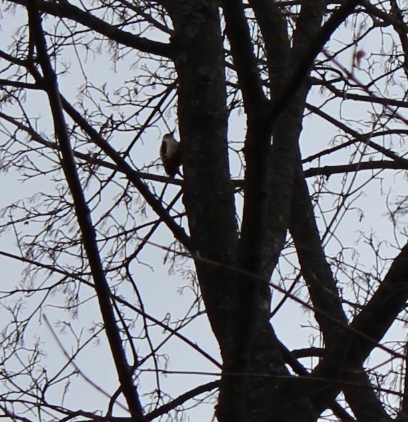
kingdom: Animalia
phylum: Chordata
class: Aves
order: Piciformes
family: Picidae
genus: Dendrocopos
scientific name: Dendrocopos major
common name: Great spotted woodpecker
